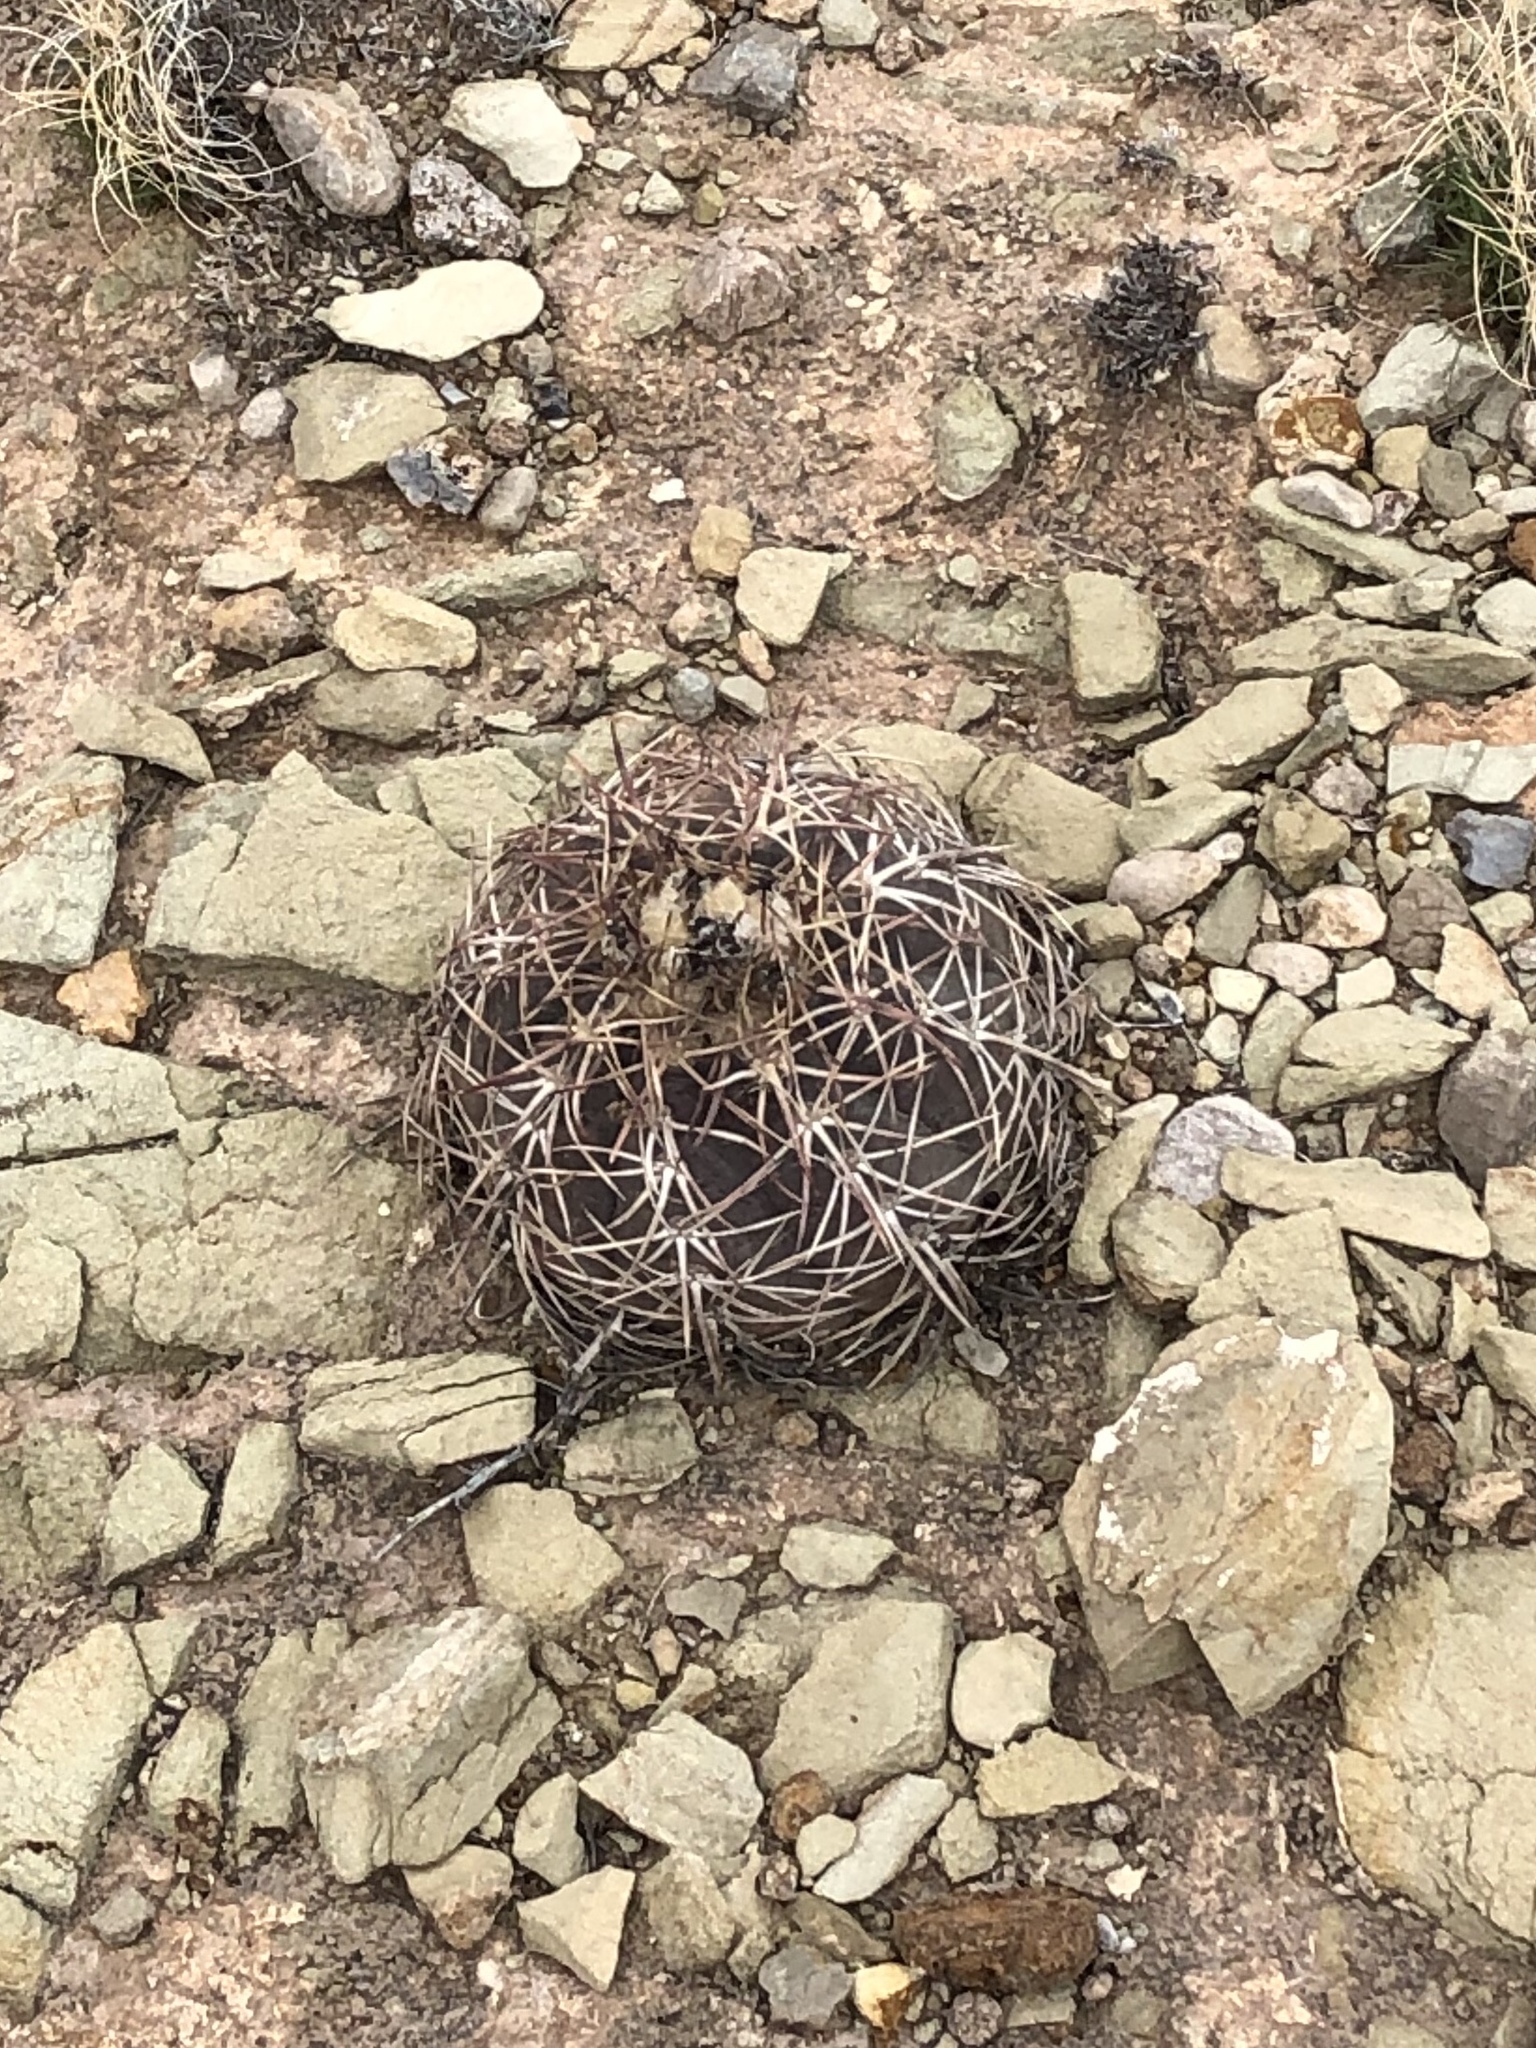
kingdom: Plantae
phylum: Tracheophyta
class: Magnoliopsida
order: Caryophyllales
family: Cactaceae
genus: Echinocactus
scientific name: Echinocactus horizonthalonius
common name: Devilshead
